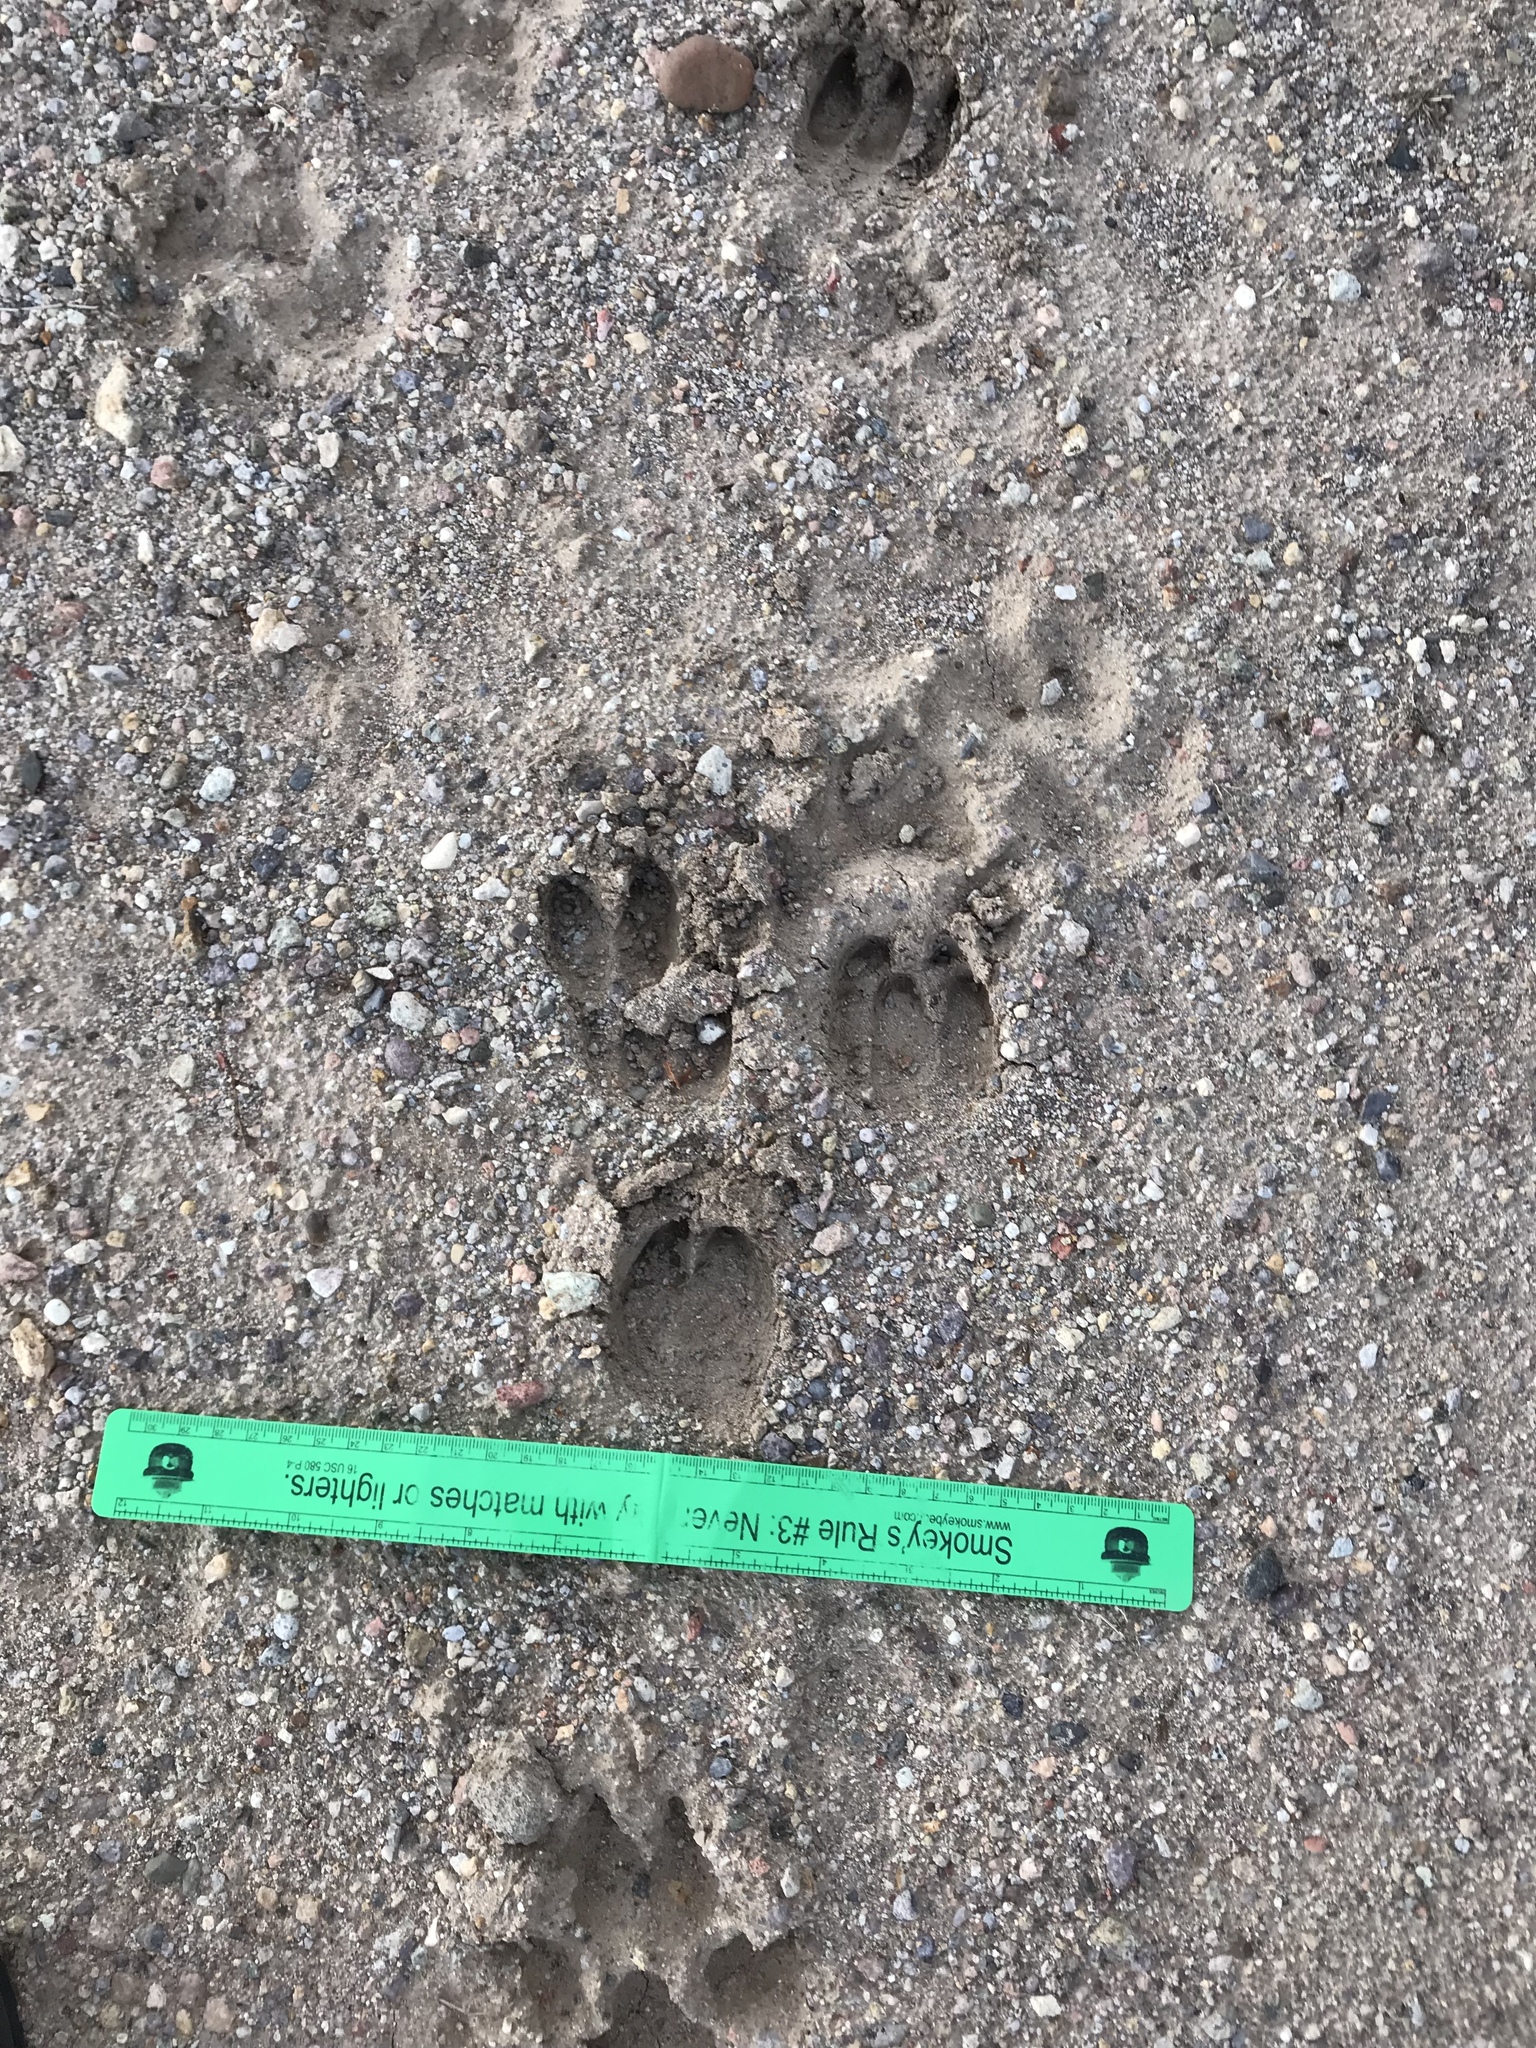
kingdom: Animalia
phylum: Chordata
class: Mammalia
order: Artiodactyla
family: Tayassuidae
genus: Pecari
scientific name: Pecari tajacu
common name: Collared peccary
